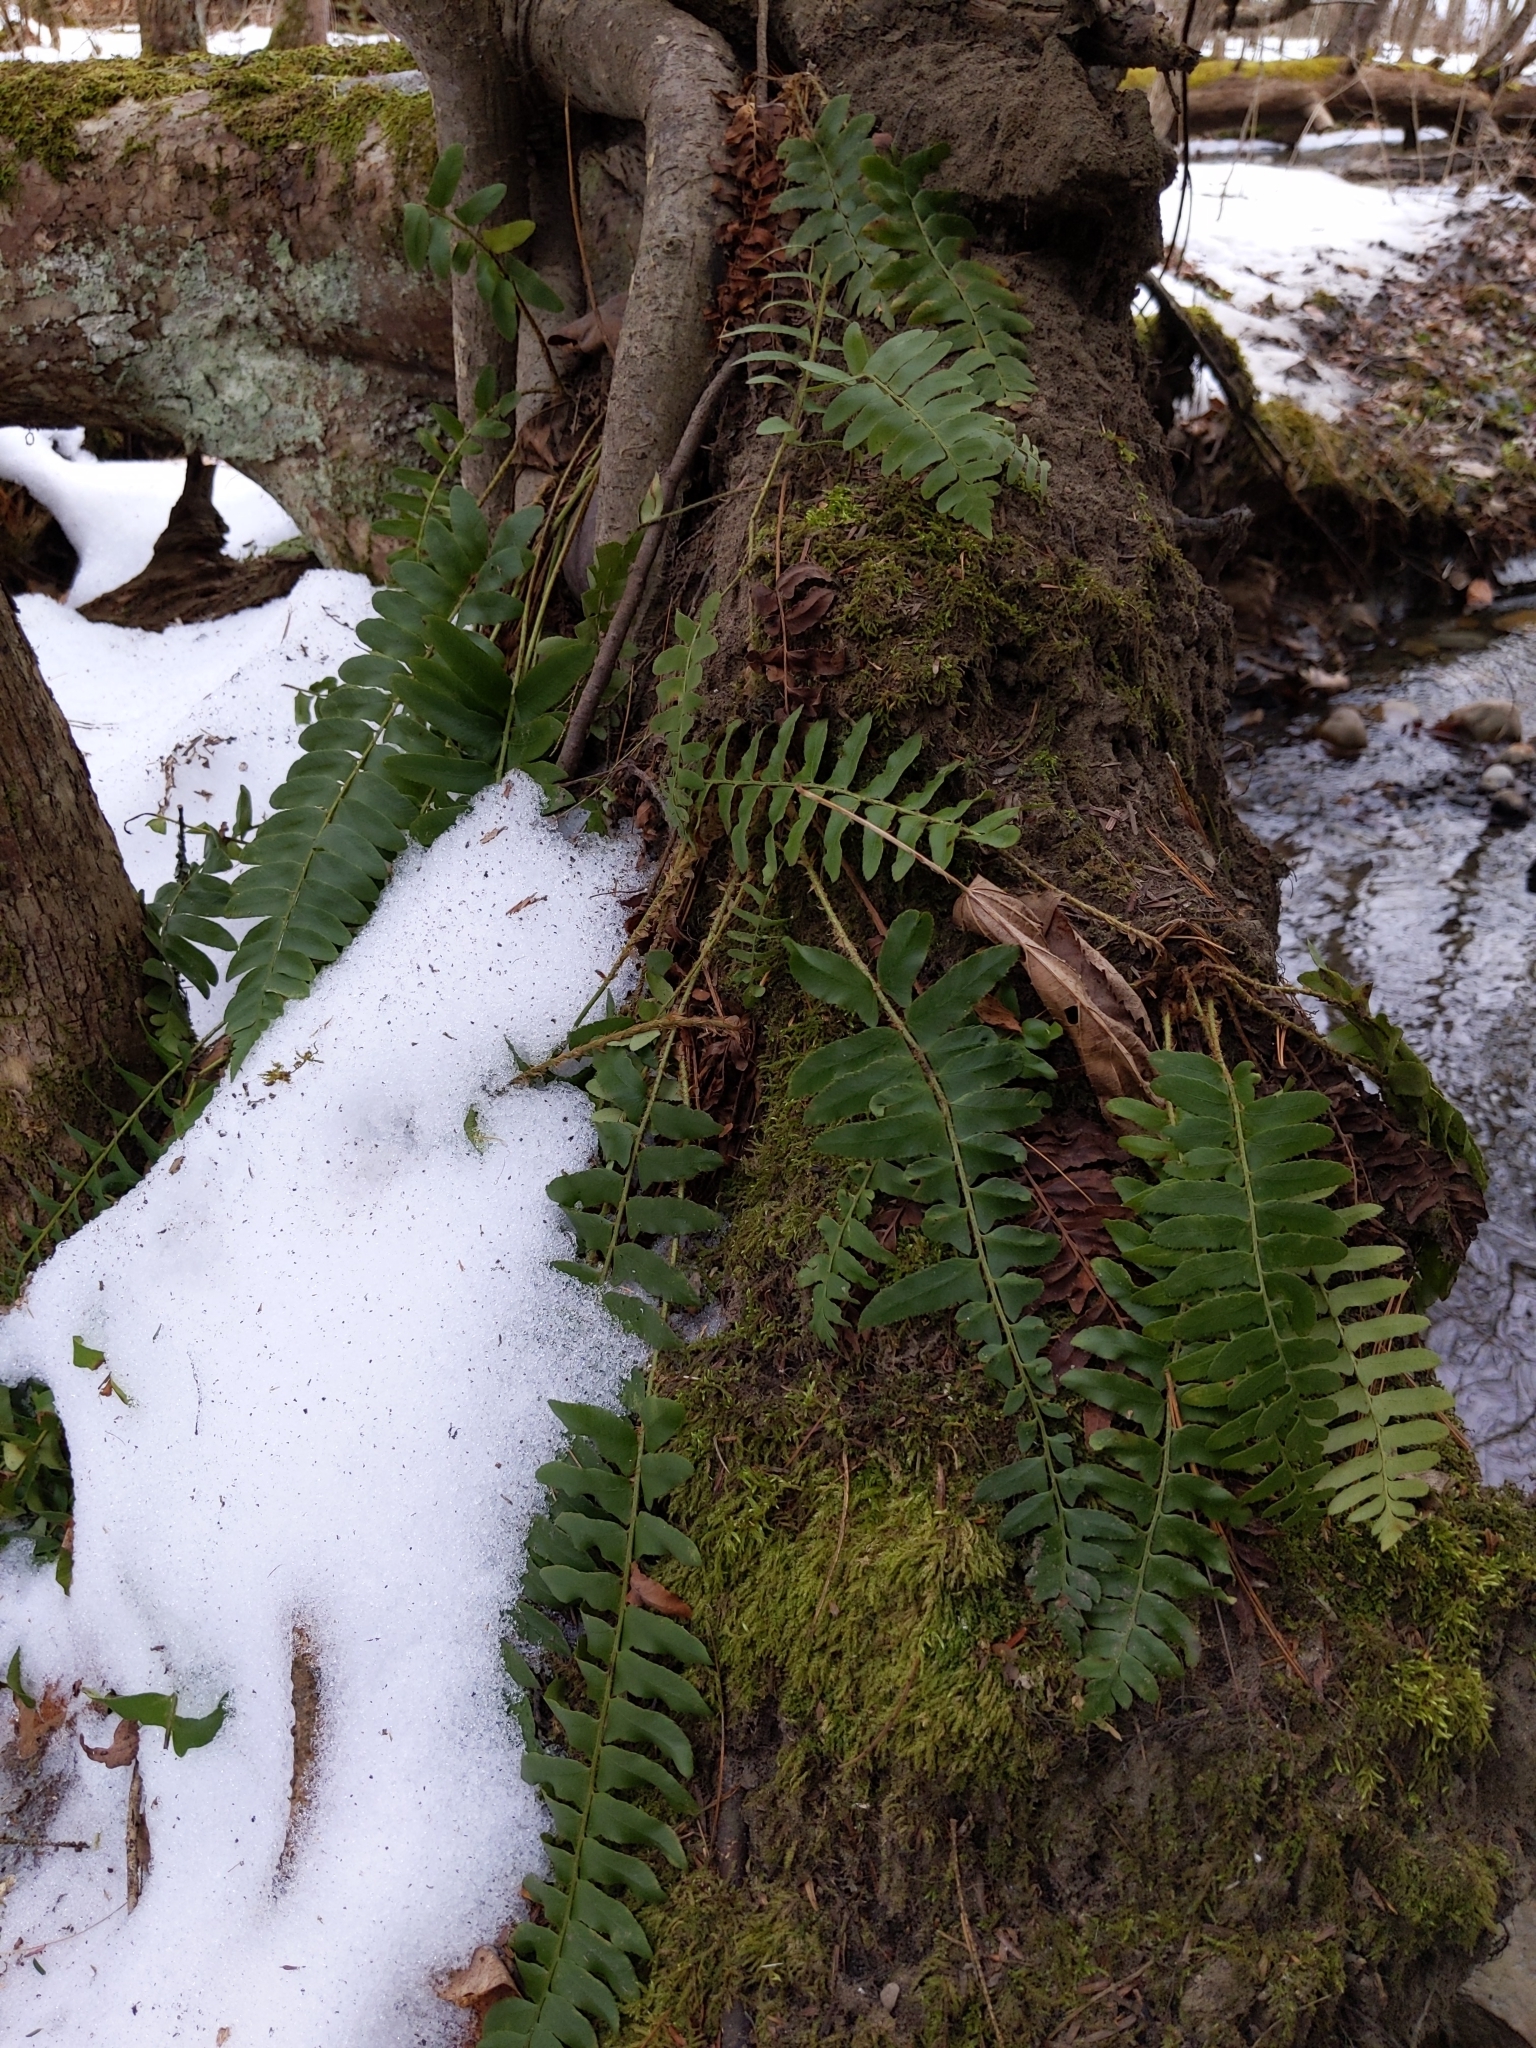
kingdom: Plantae
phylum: Tracheophyta
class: Polypodiopsida
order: Polypodiales
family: Dryopteridaceae
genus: Polystichum
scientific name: Polystichum acrostichoides
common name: Christmas fern
